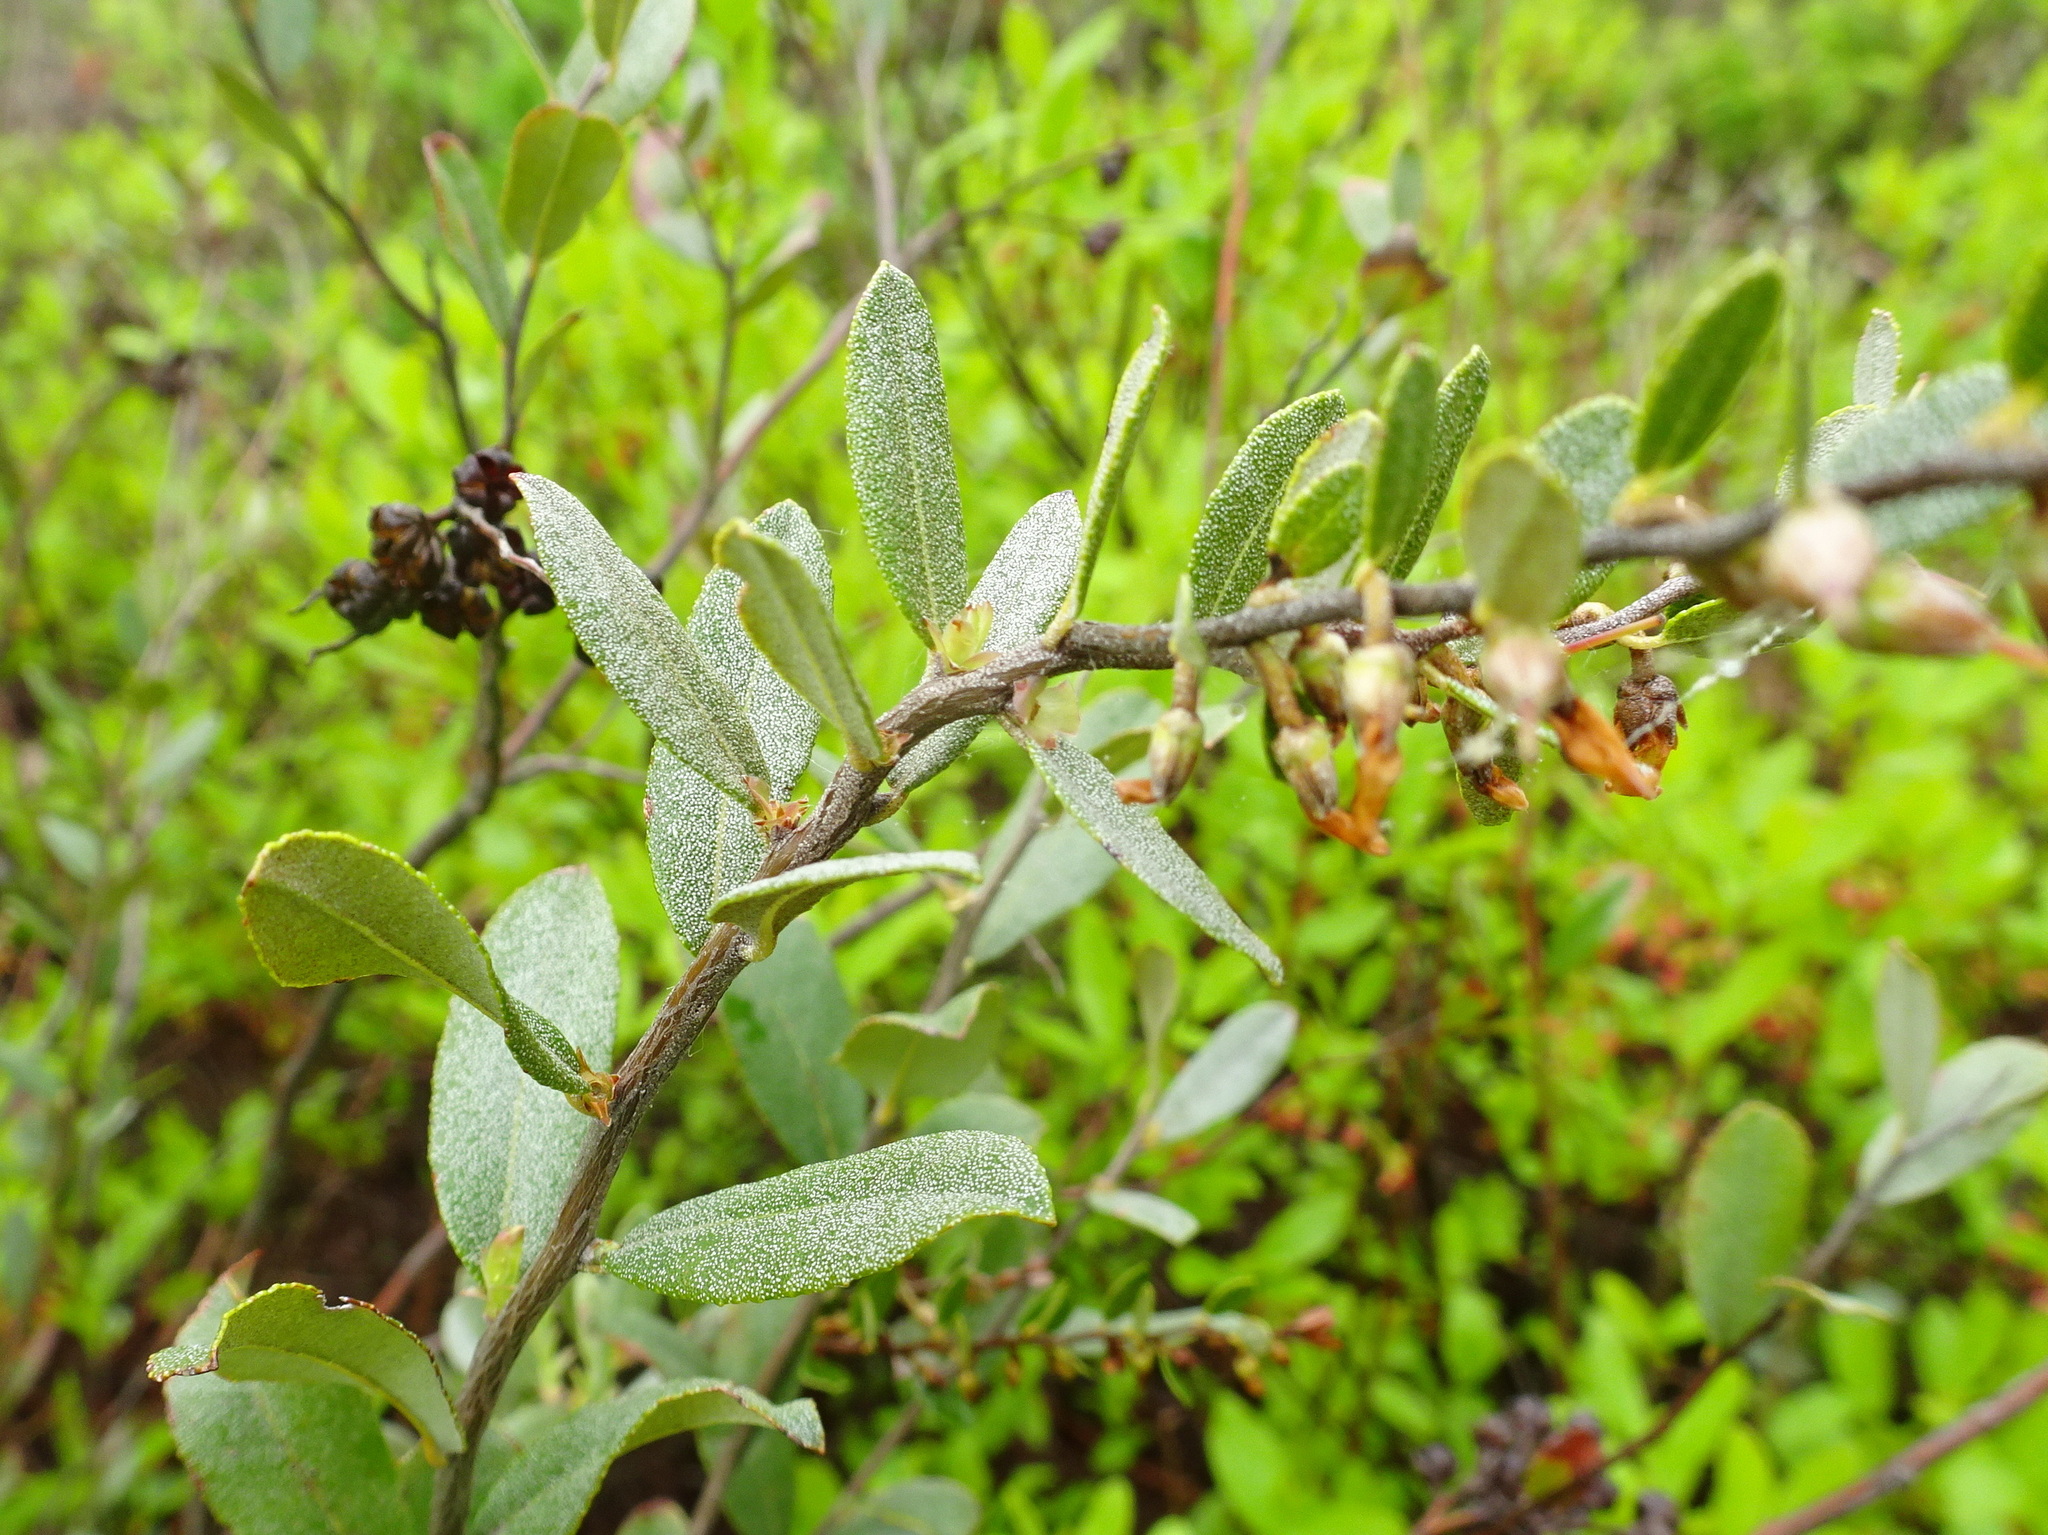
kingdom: Plantae
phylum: Tracheophyta
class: Magnoliopsida
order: Ericales
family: Ericaceae
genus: Chamaedaphne
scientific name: Chamaedaphne calyculata
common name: Leatherleaf
